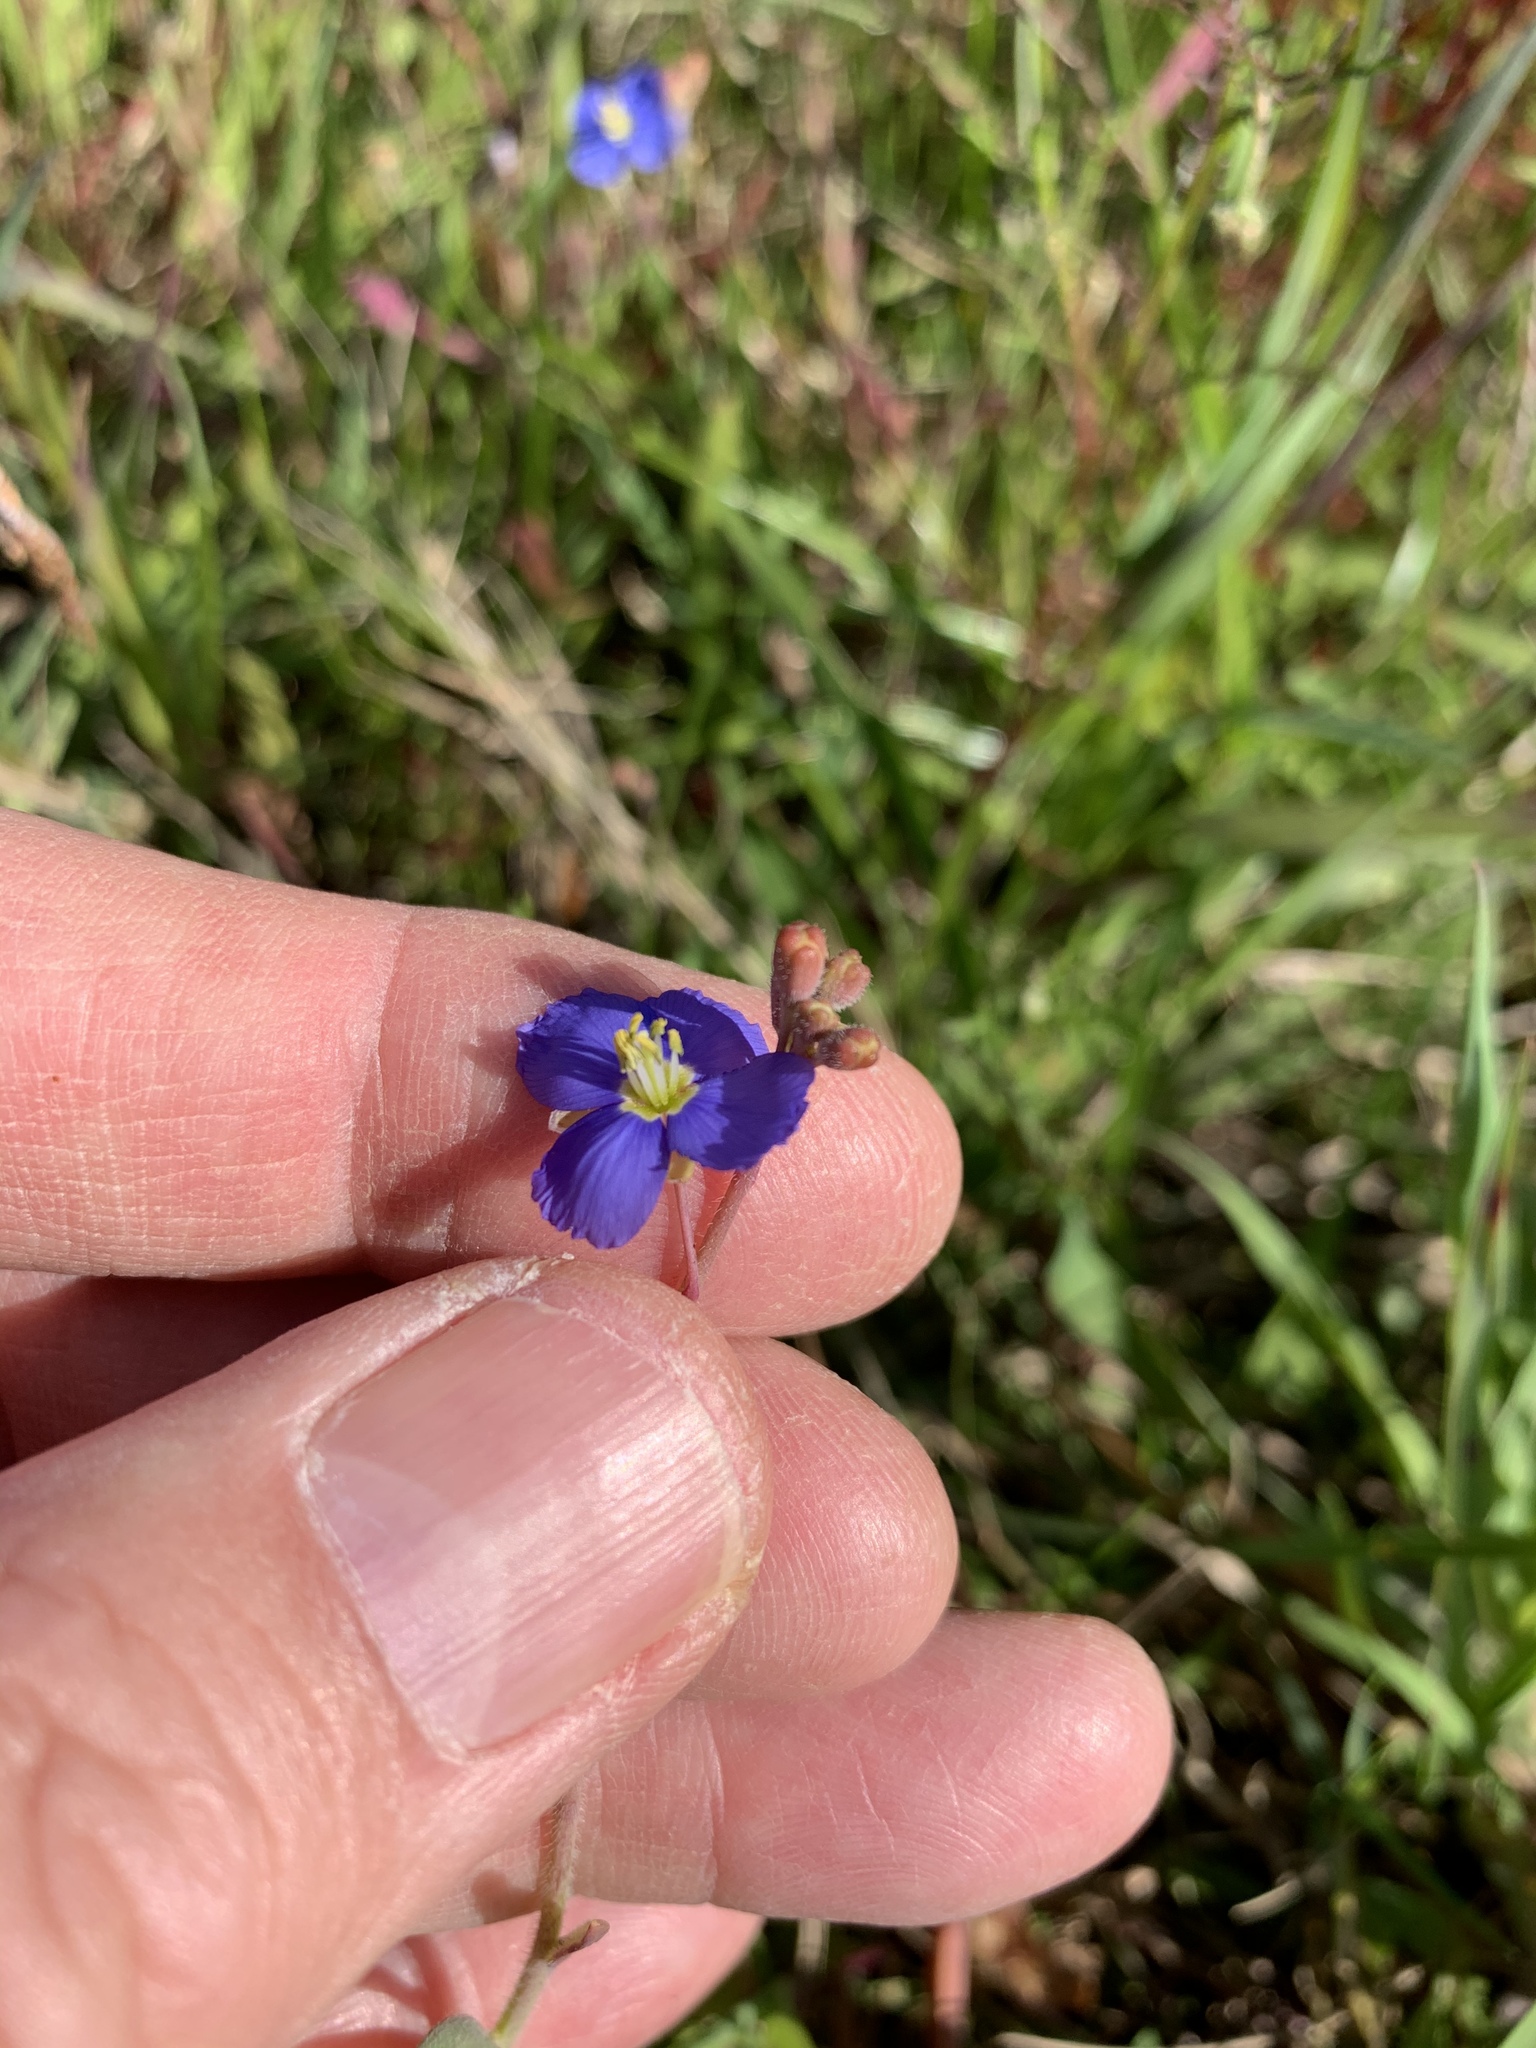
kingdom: Plantae
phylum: Tracheophyta
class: Magnoliopsida
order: Brassicales
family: Brassicaceae
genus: Heliophila
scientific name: Heliophila africana
